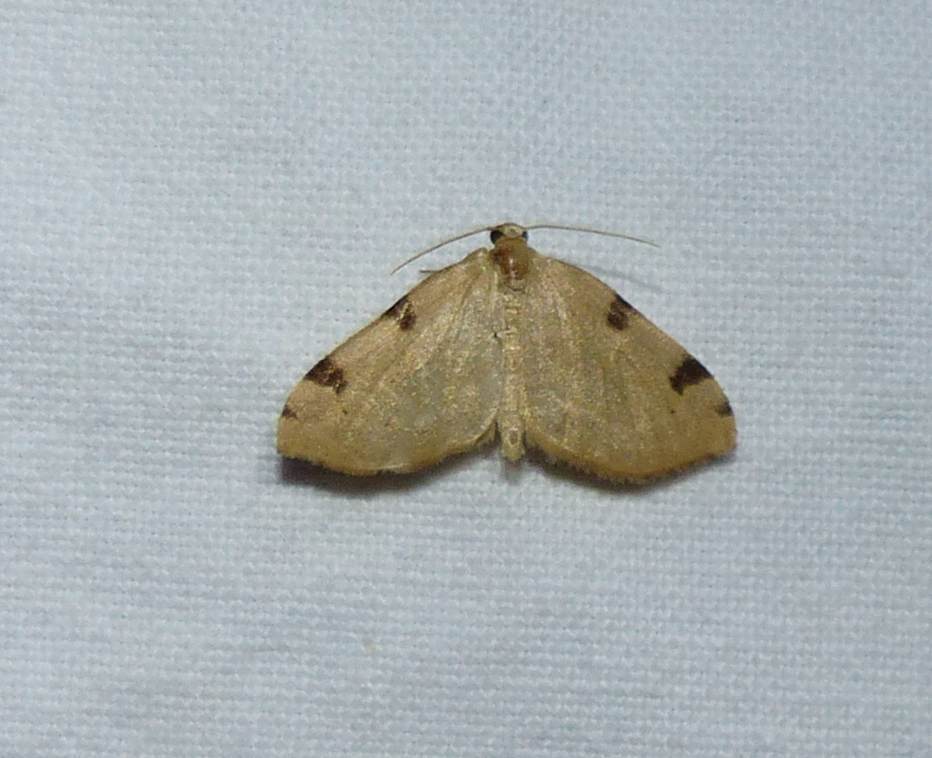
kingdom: Animalia
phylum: Arthropoda
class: Insecta
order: Lepidoptera
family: Geometridae
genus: Heterophleps
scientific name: Heterophleps triguttaria
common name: Three-spotted fillip
